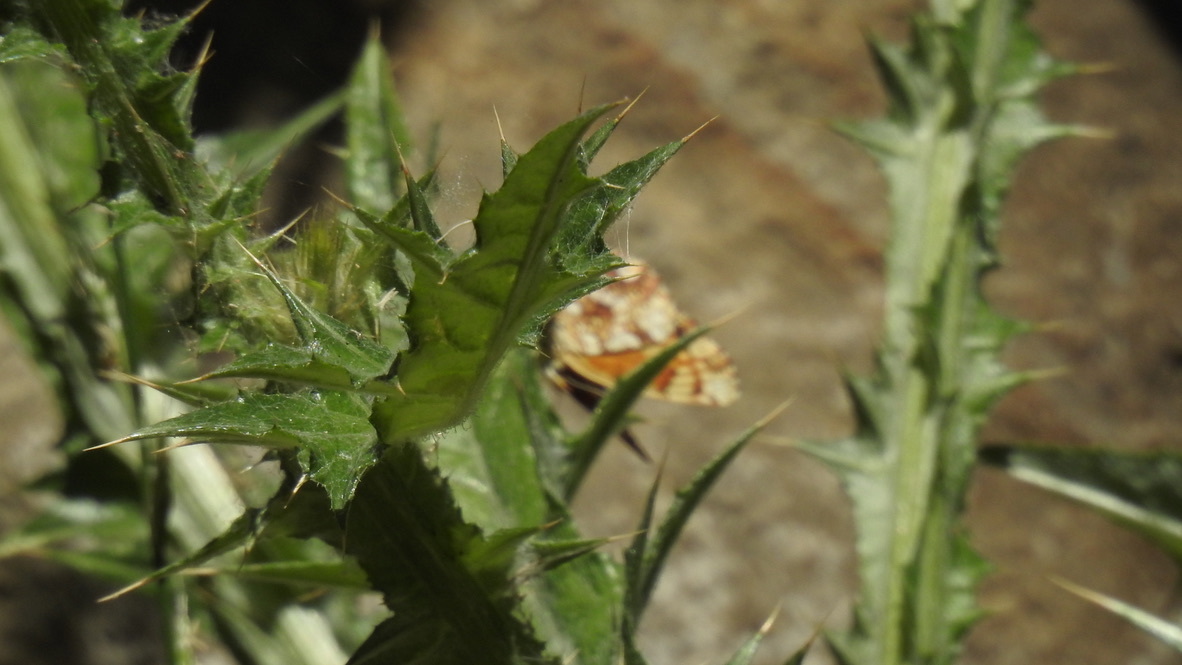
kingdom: Animalia
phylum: Arthropoda
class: Insecta
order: Lepidoptera
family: Nymphalidae
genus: Eresia
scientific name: Eresia aveyrona
